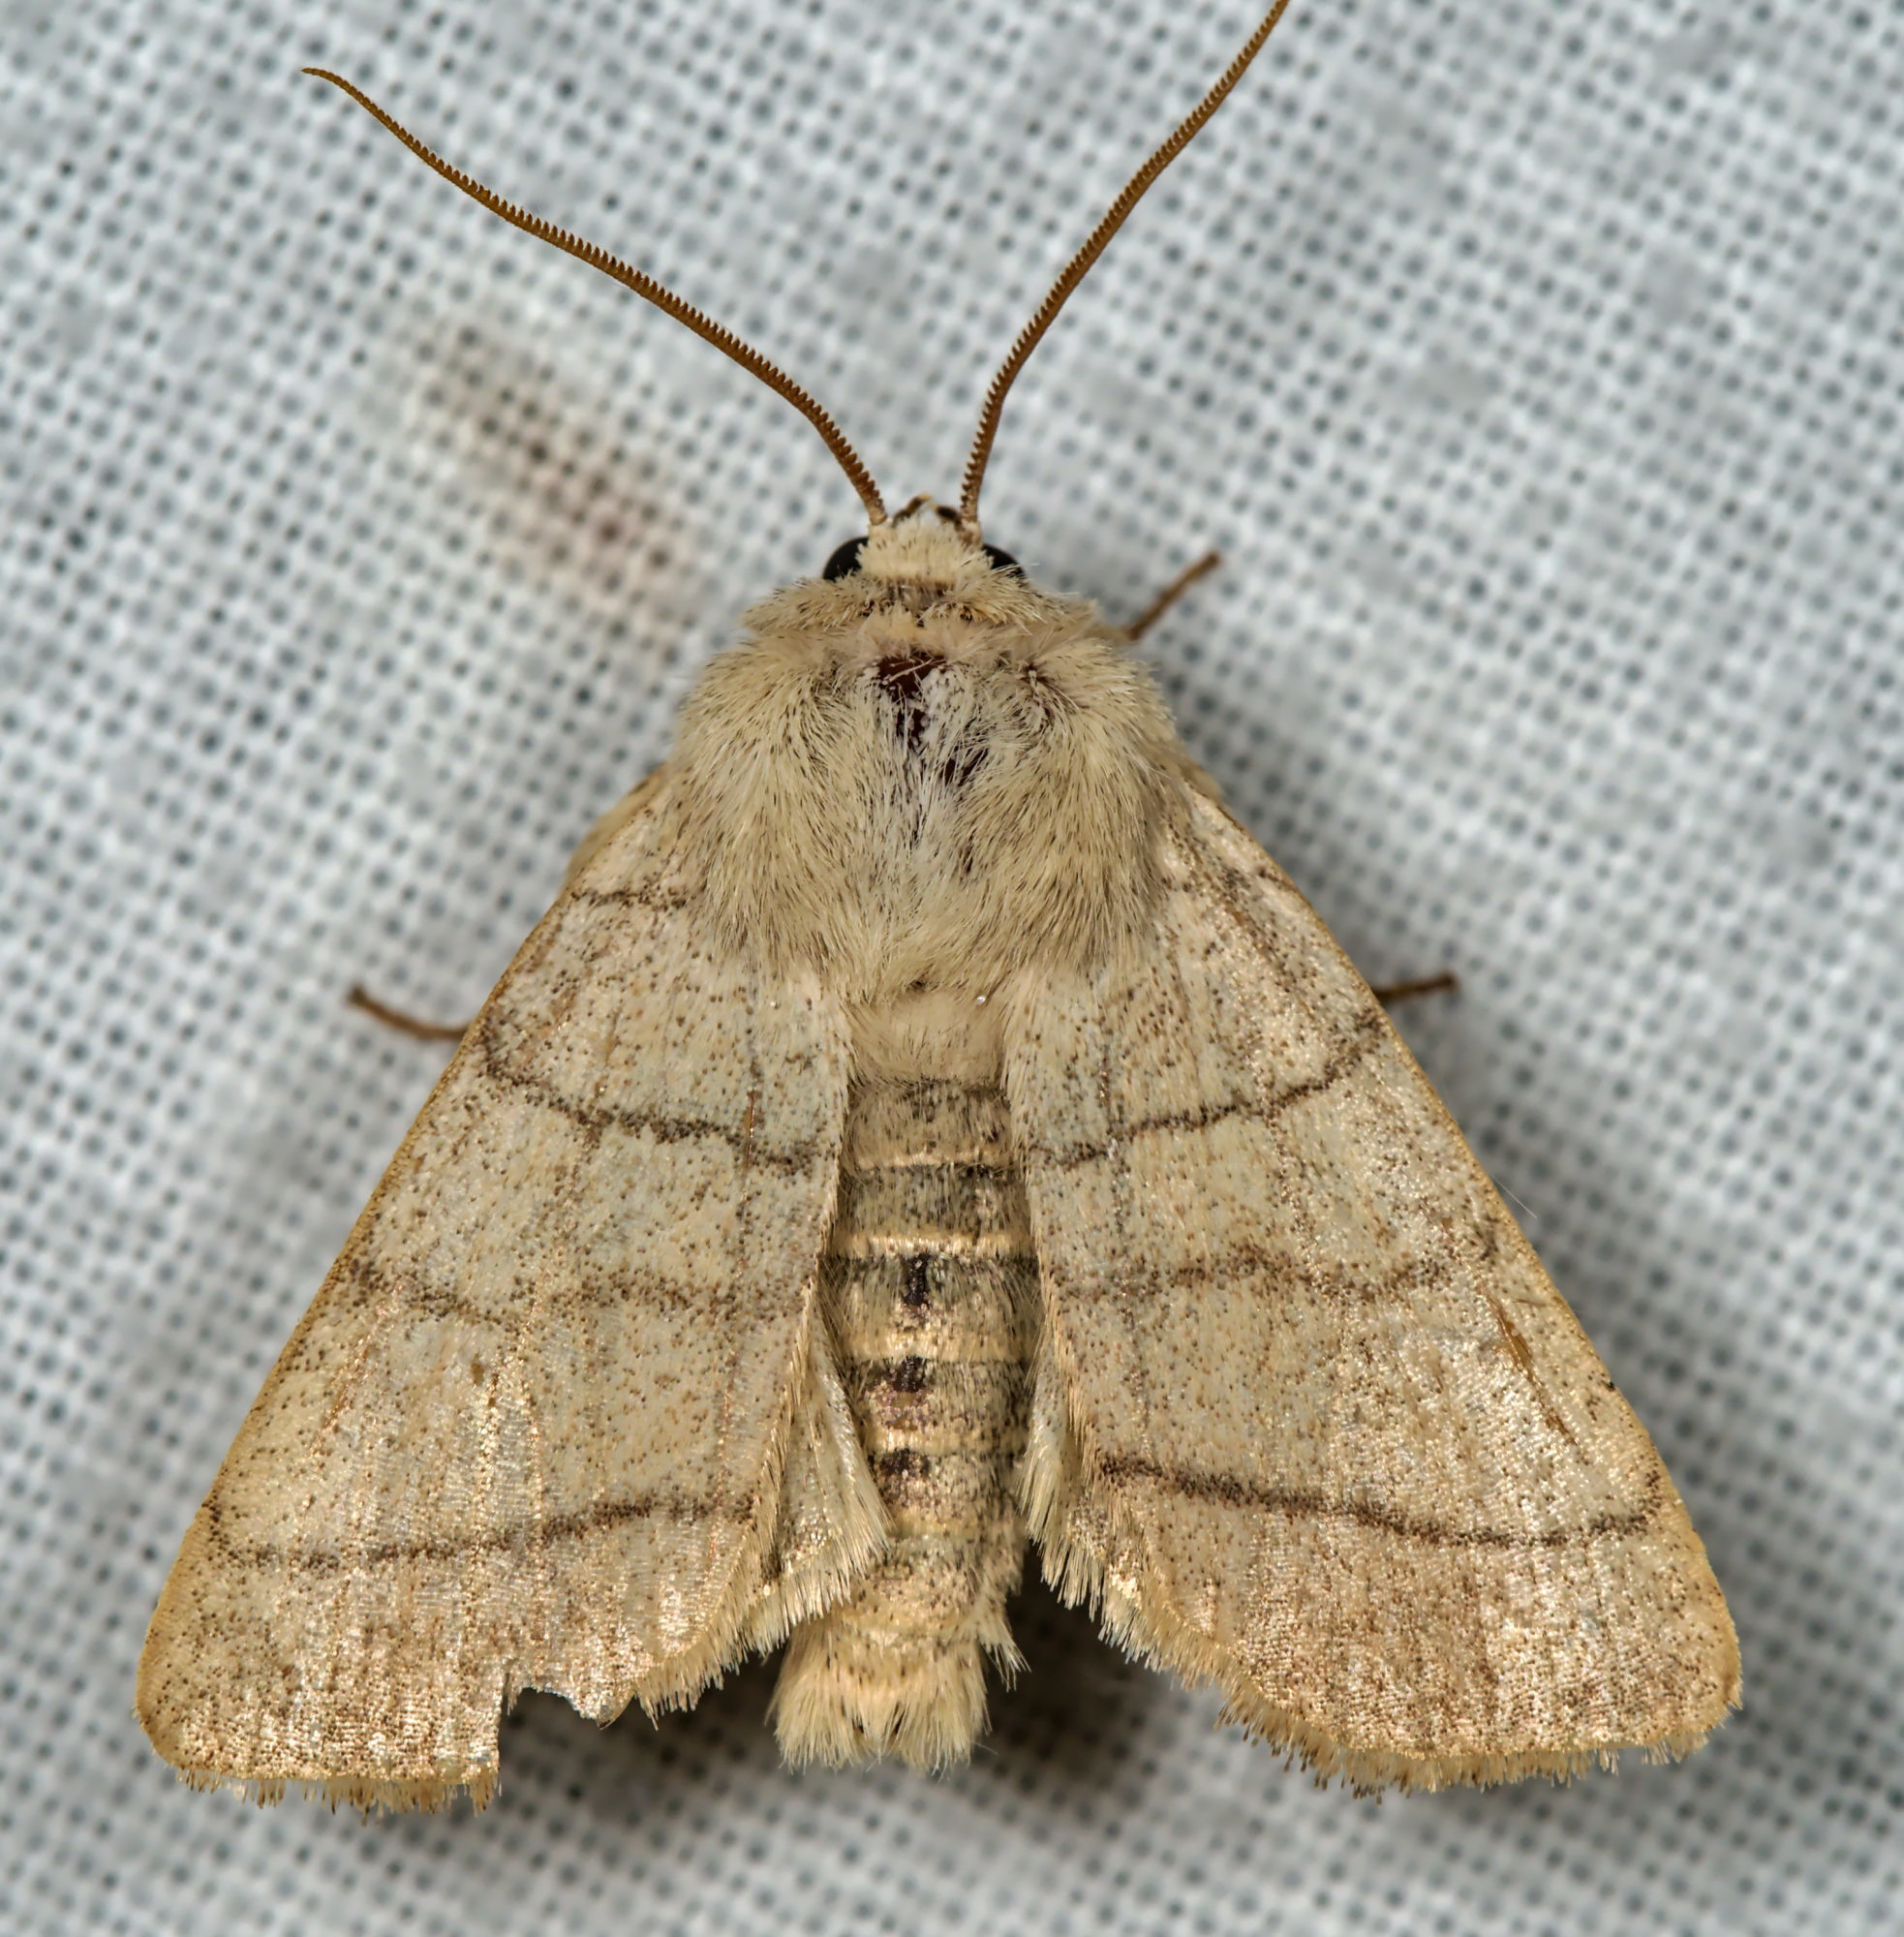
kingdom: Animalia
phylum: Arthropoda
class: Insecta
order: Lepidoptera
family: Noctuidae
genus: Charanyca
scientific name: Charanyca trigrammica
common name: Treble lines
